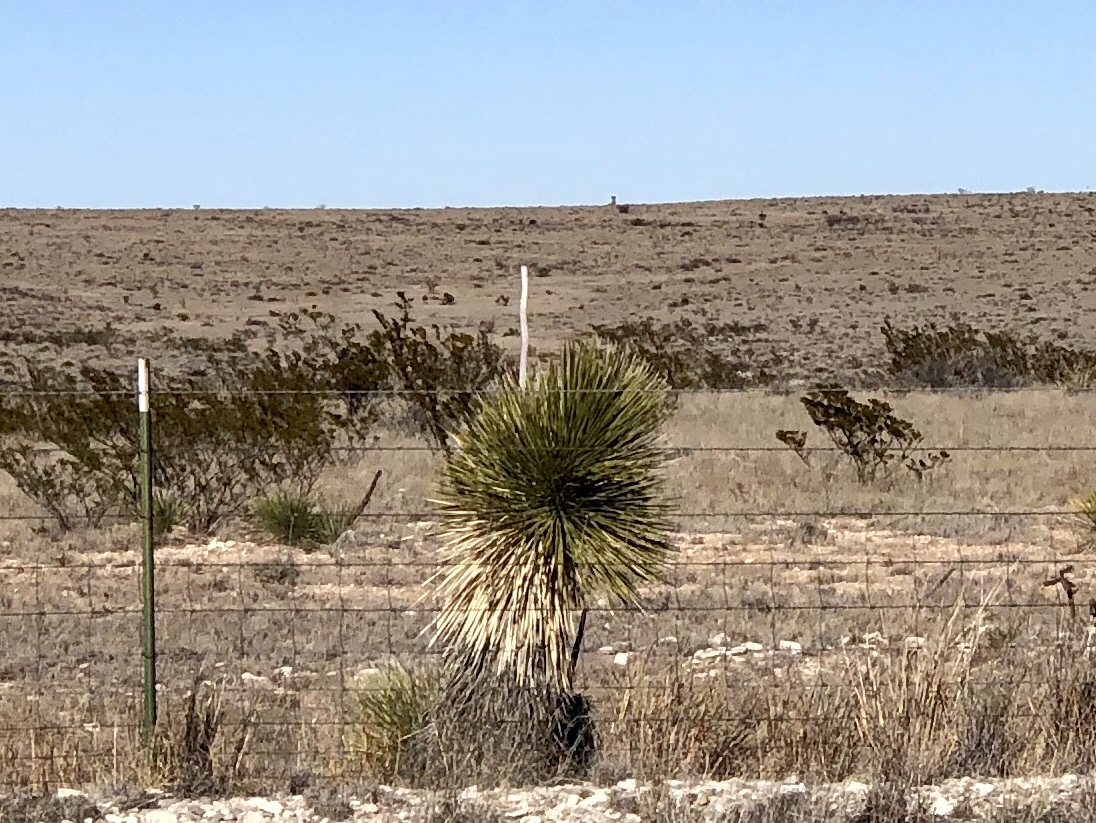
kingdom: Plantae
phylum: Tracheophyta
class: Liliopsida
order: Asparagales
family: Asparagaceae
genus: Yucca
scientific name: Yucca elata
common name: Palmella
